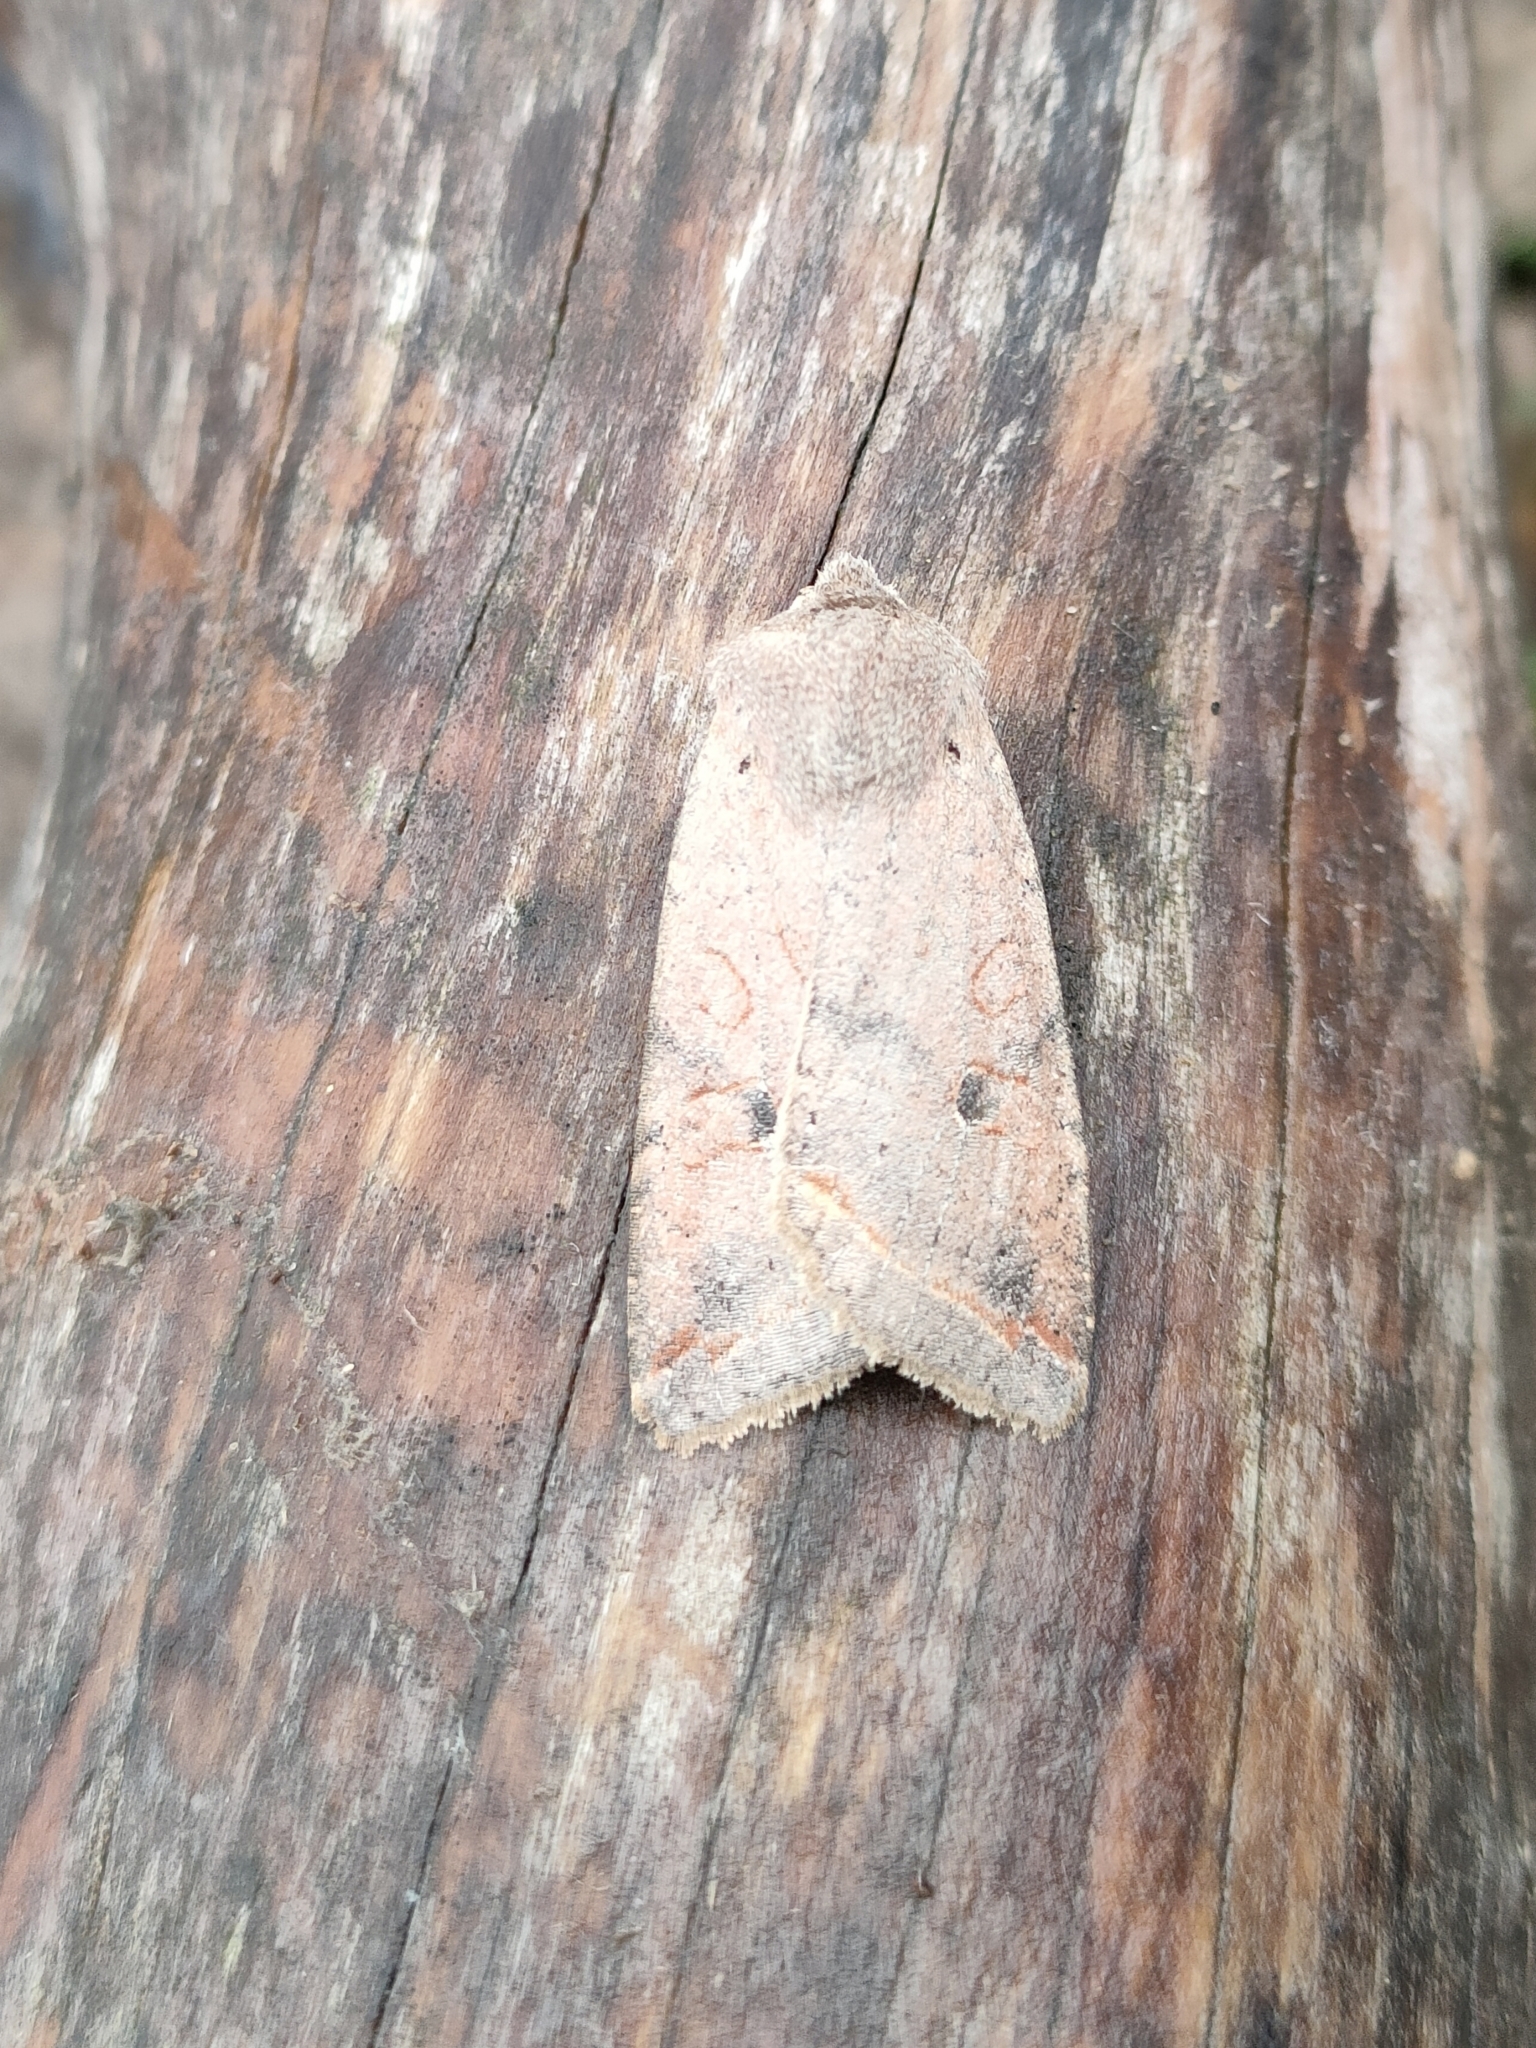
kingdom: Animalia
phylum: Arthropoda
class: Insecta
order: Lepidoptera
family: Noctuidae
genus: Agrochola
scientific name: Agrochola lota
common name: Red-line quaker
